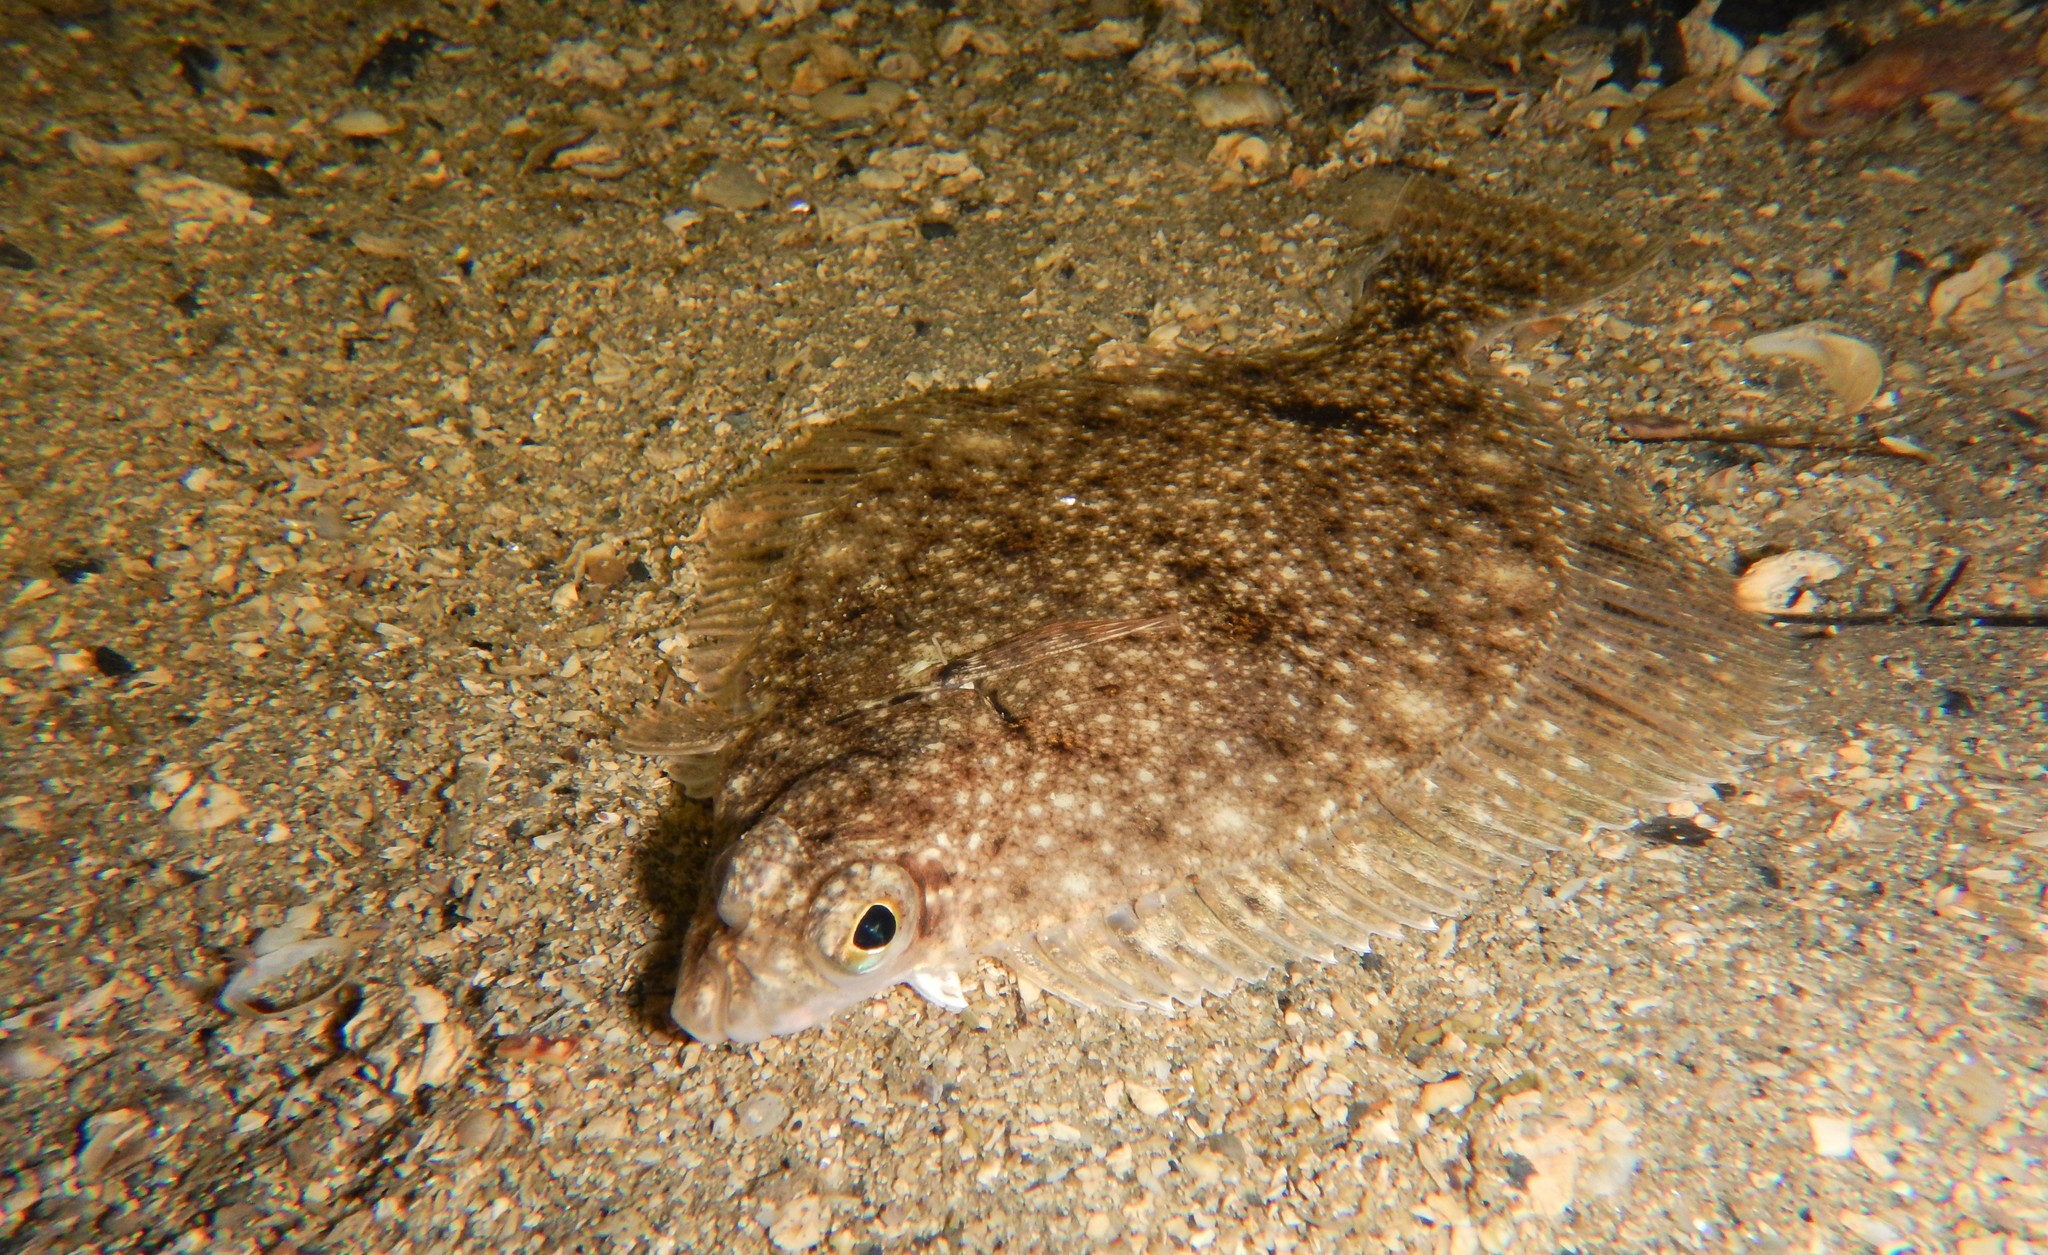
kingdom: Animalia
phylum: Chordata
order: Pleuronectiformes
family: Pleuronectidae
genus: Limanda
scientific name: Limanda limanda
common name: Dab
